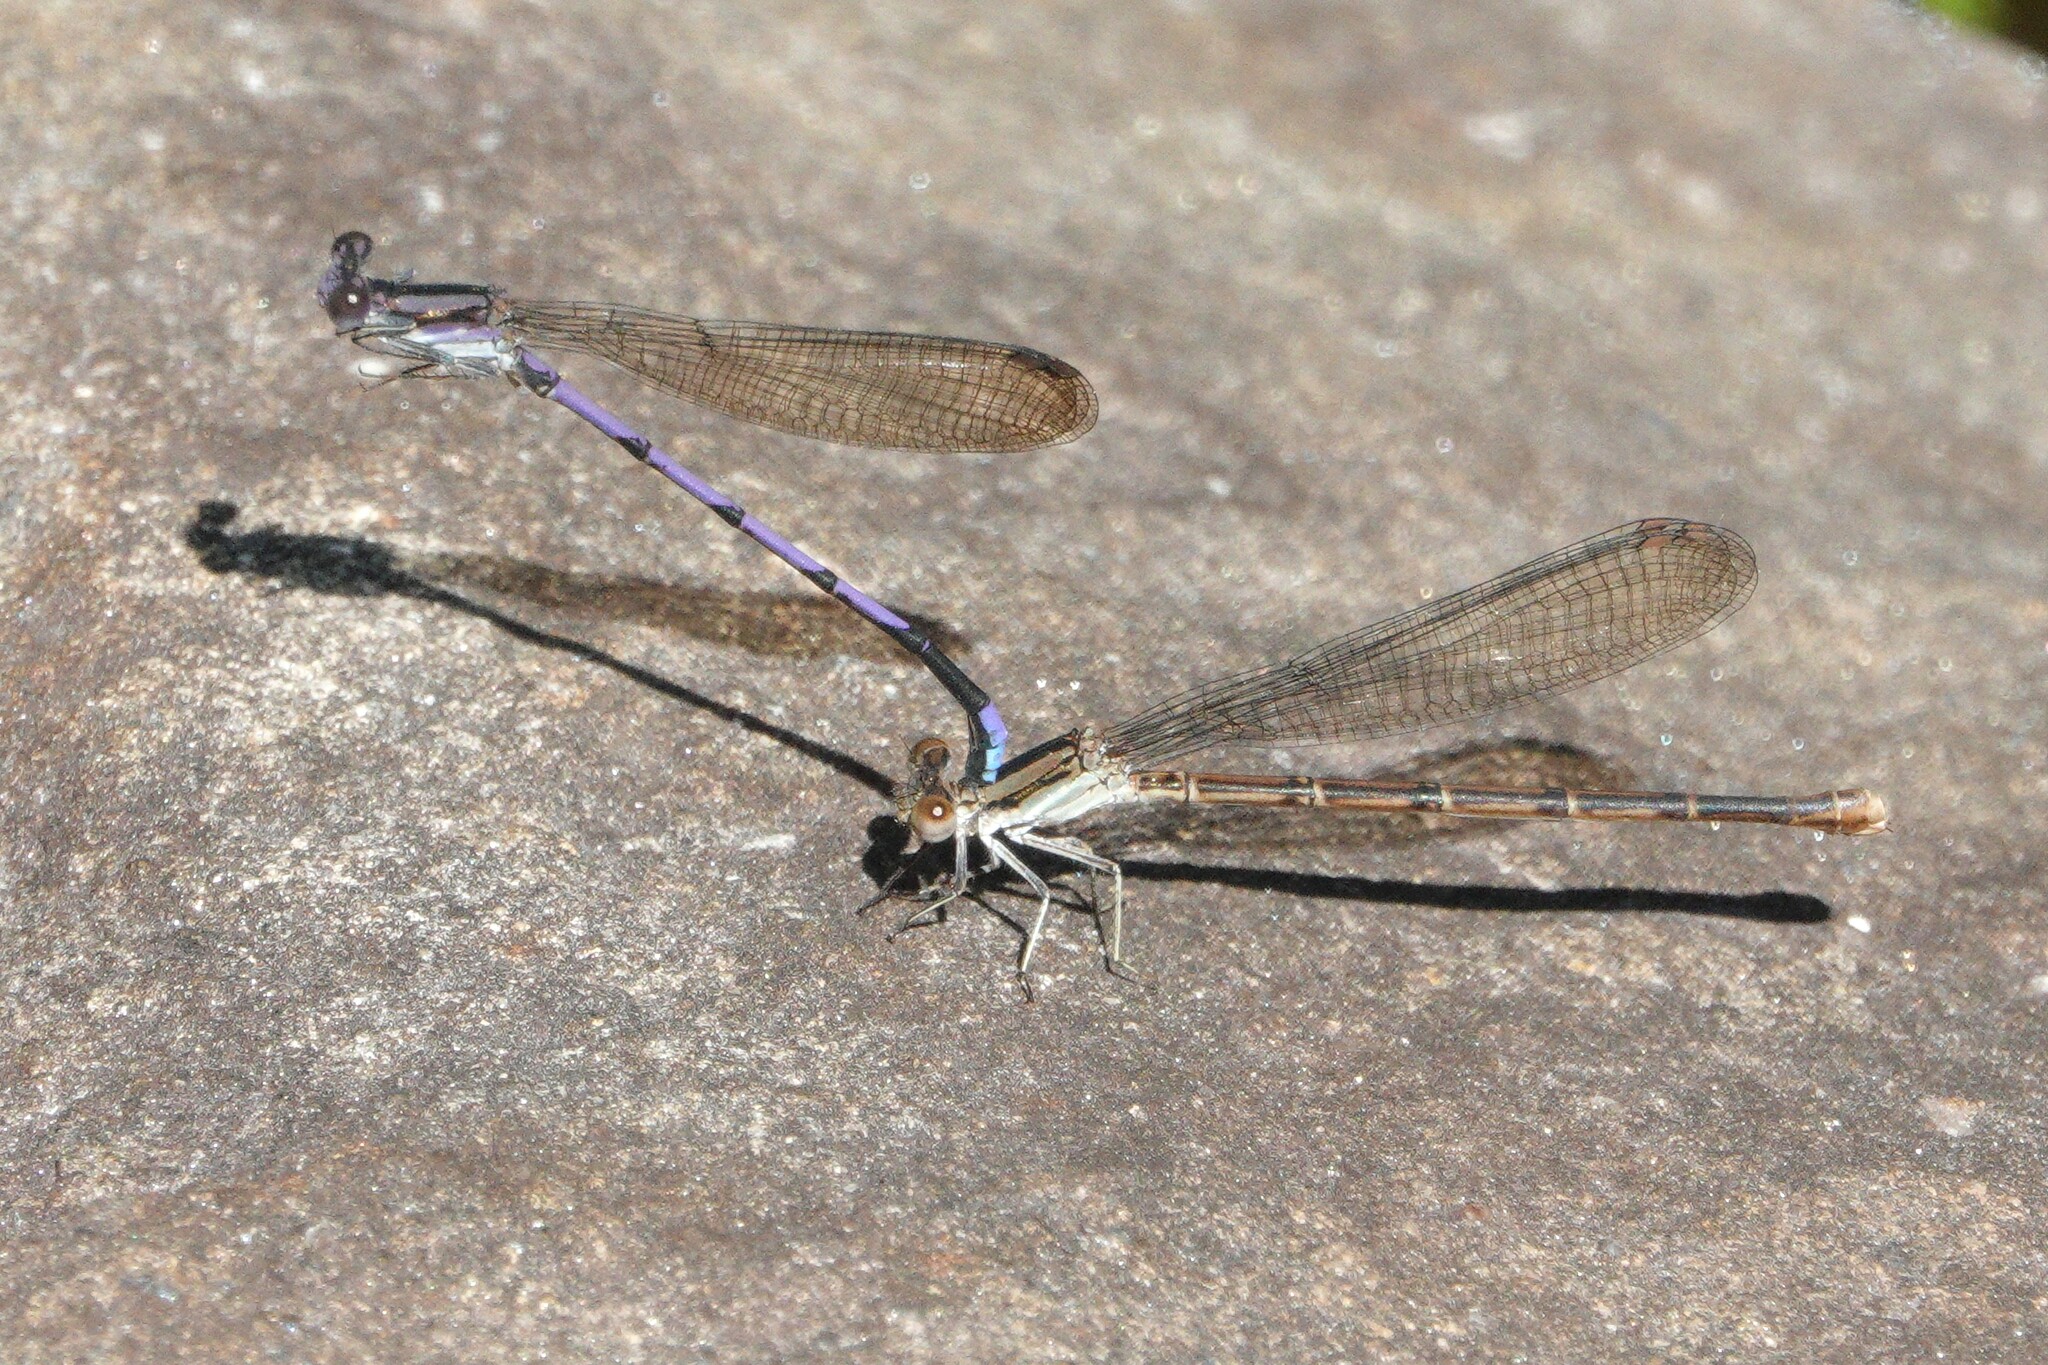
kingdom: Animalia
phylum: Arthropoda
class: Insecta
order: Odonata
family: Coenagrionidae
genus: Argia
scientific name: Argia fumipennis
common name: Variable dancer
